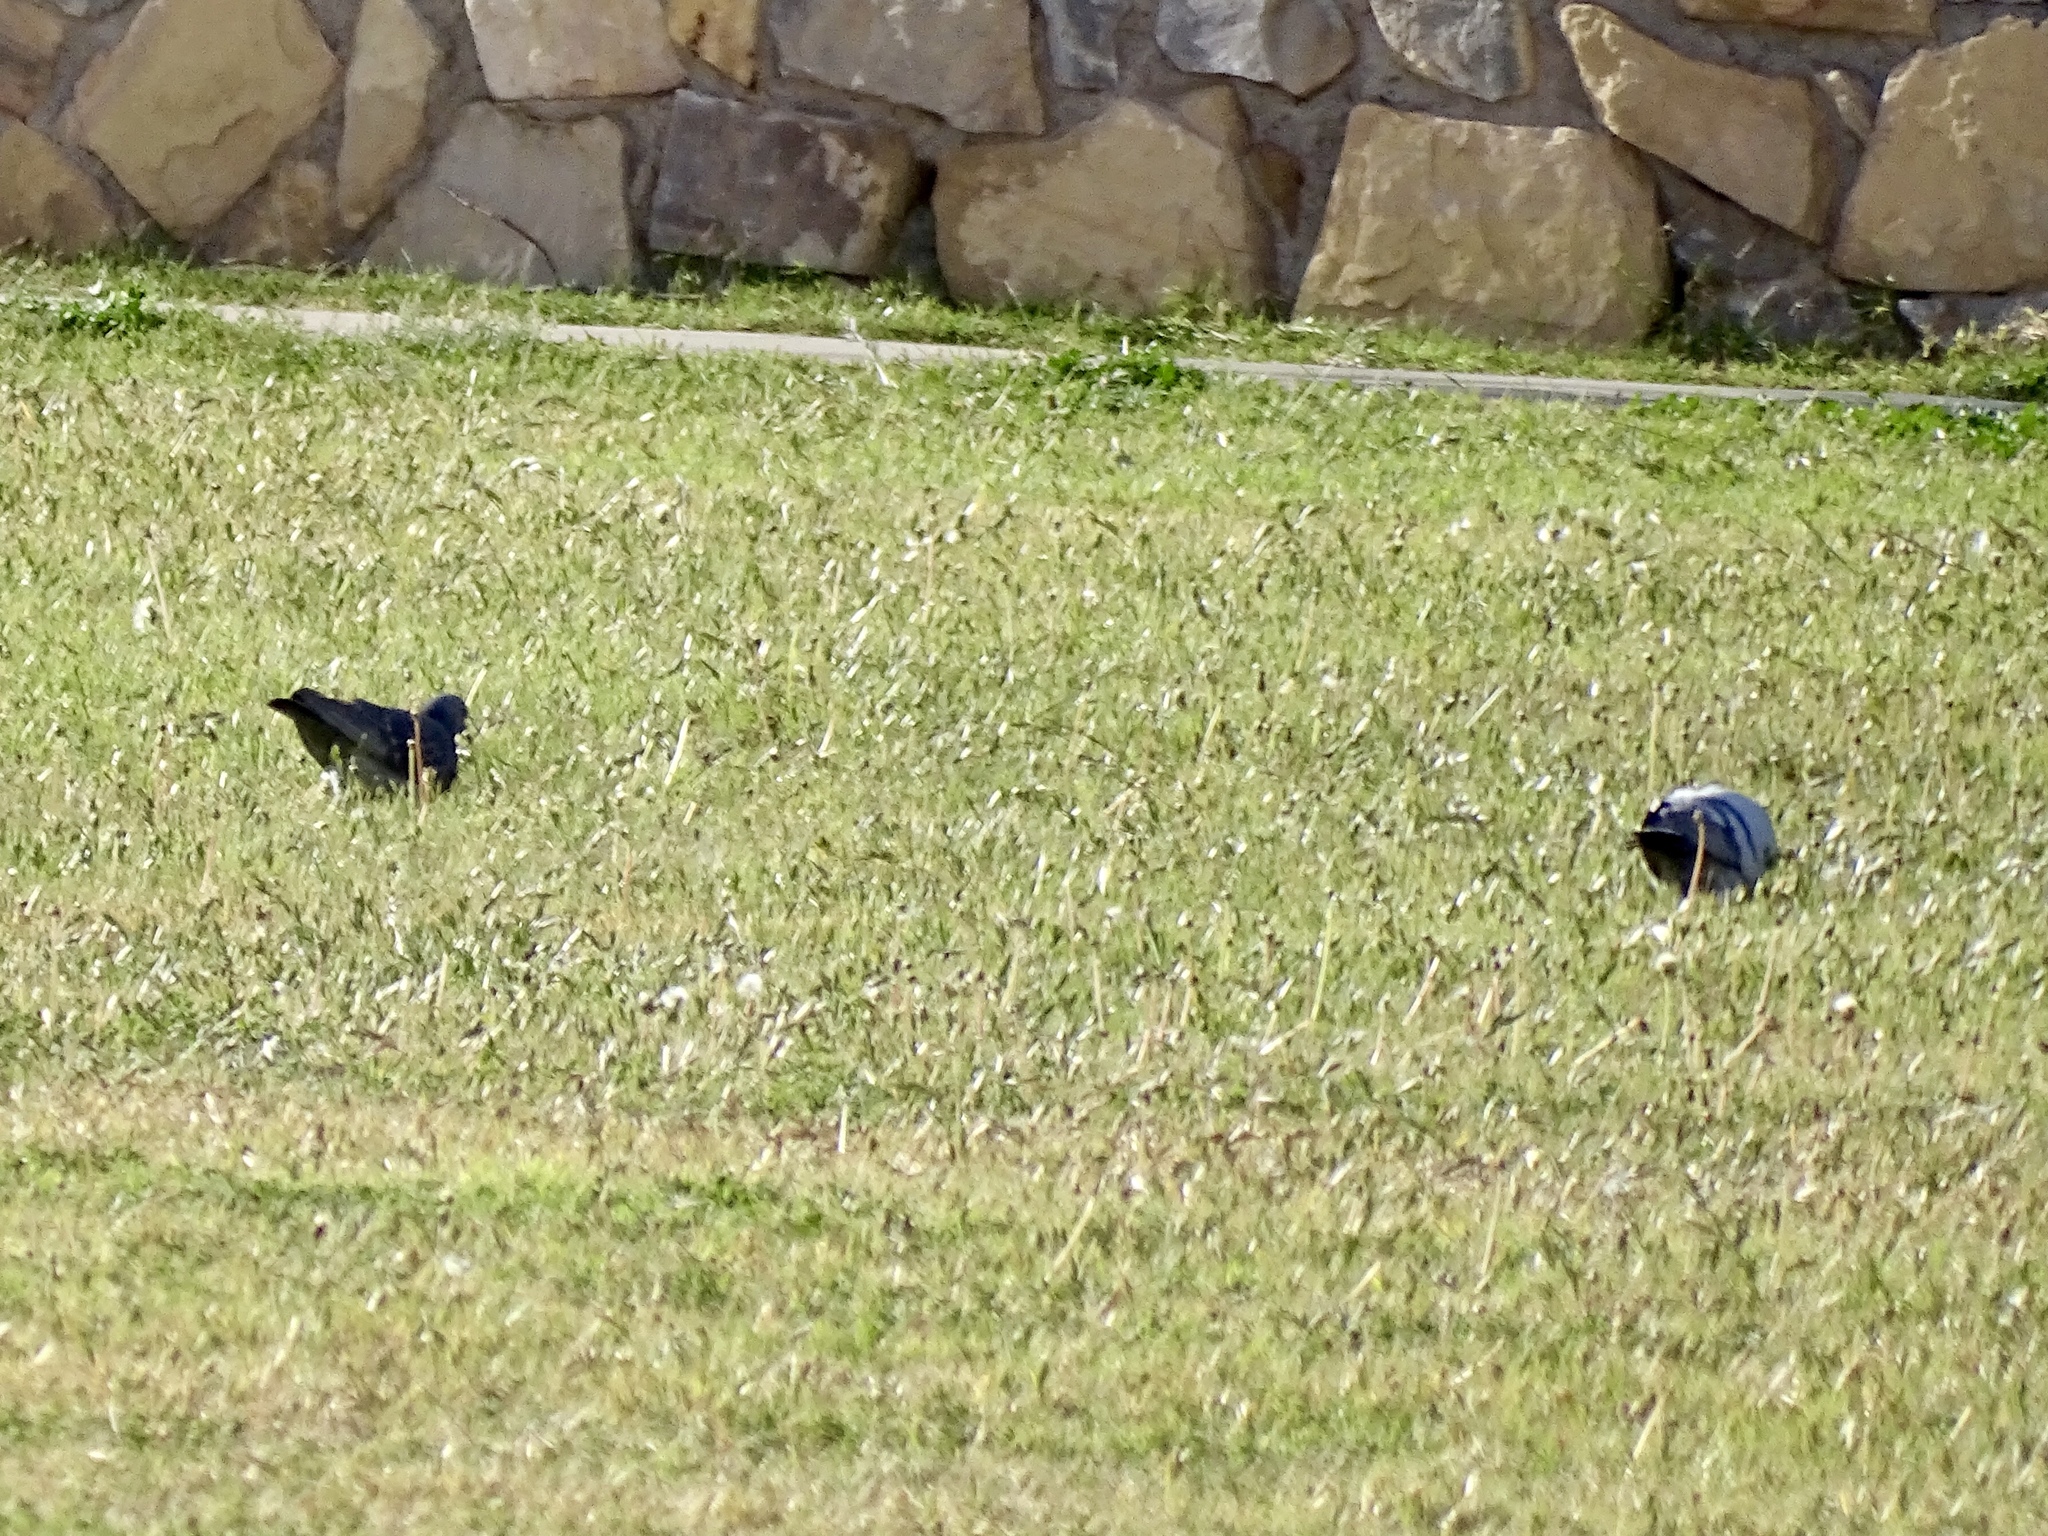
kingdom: Animalia
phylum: Chordata
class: Aves
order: Columbiformes
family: Columbidae
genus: Columba
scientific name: Columba livia
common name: Rock pigeon
